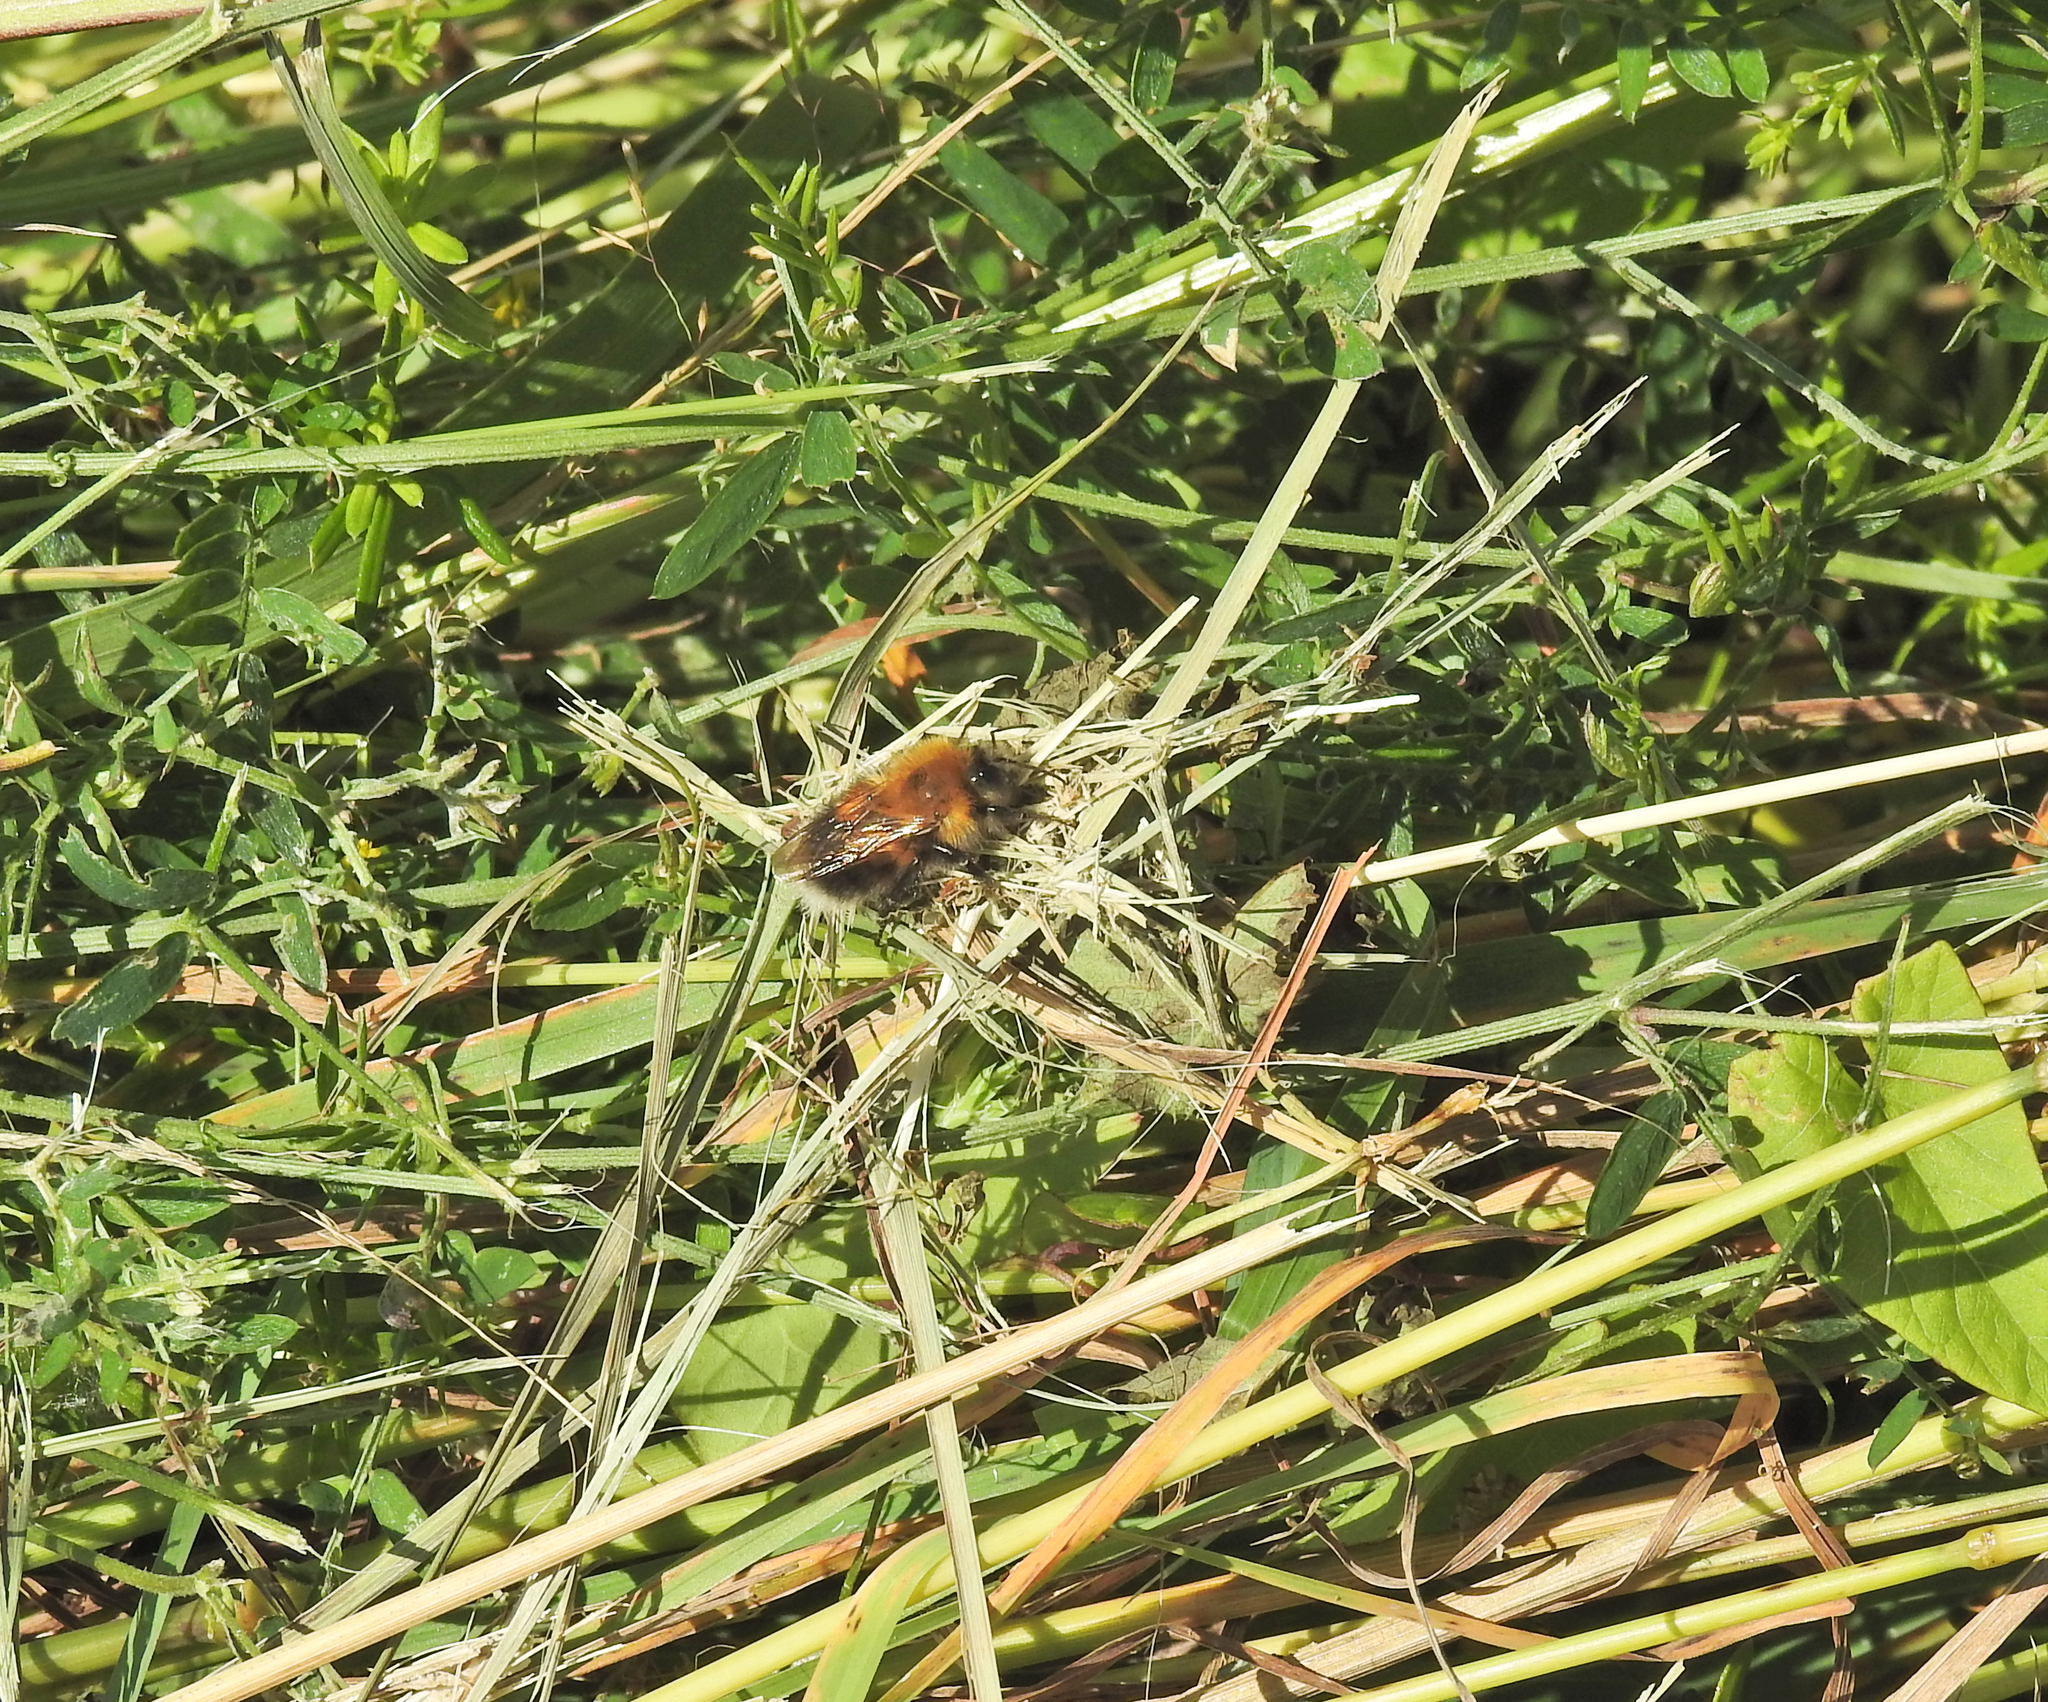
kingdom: Animalia
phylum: Arthropoda
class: Insecta
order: Hymenoptera
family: Apidae
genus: Bombus
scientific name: Bombus hypnorum
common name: New garden bumblebee
